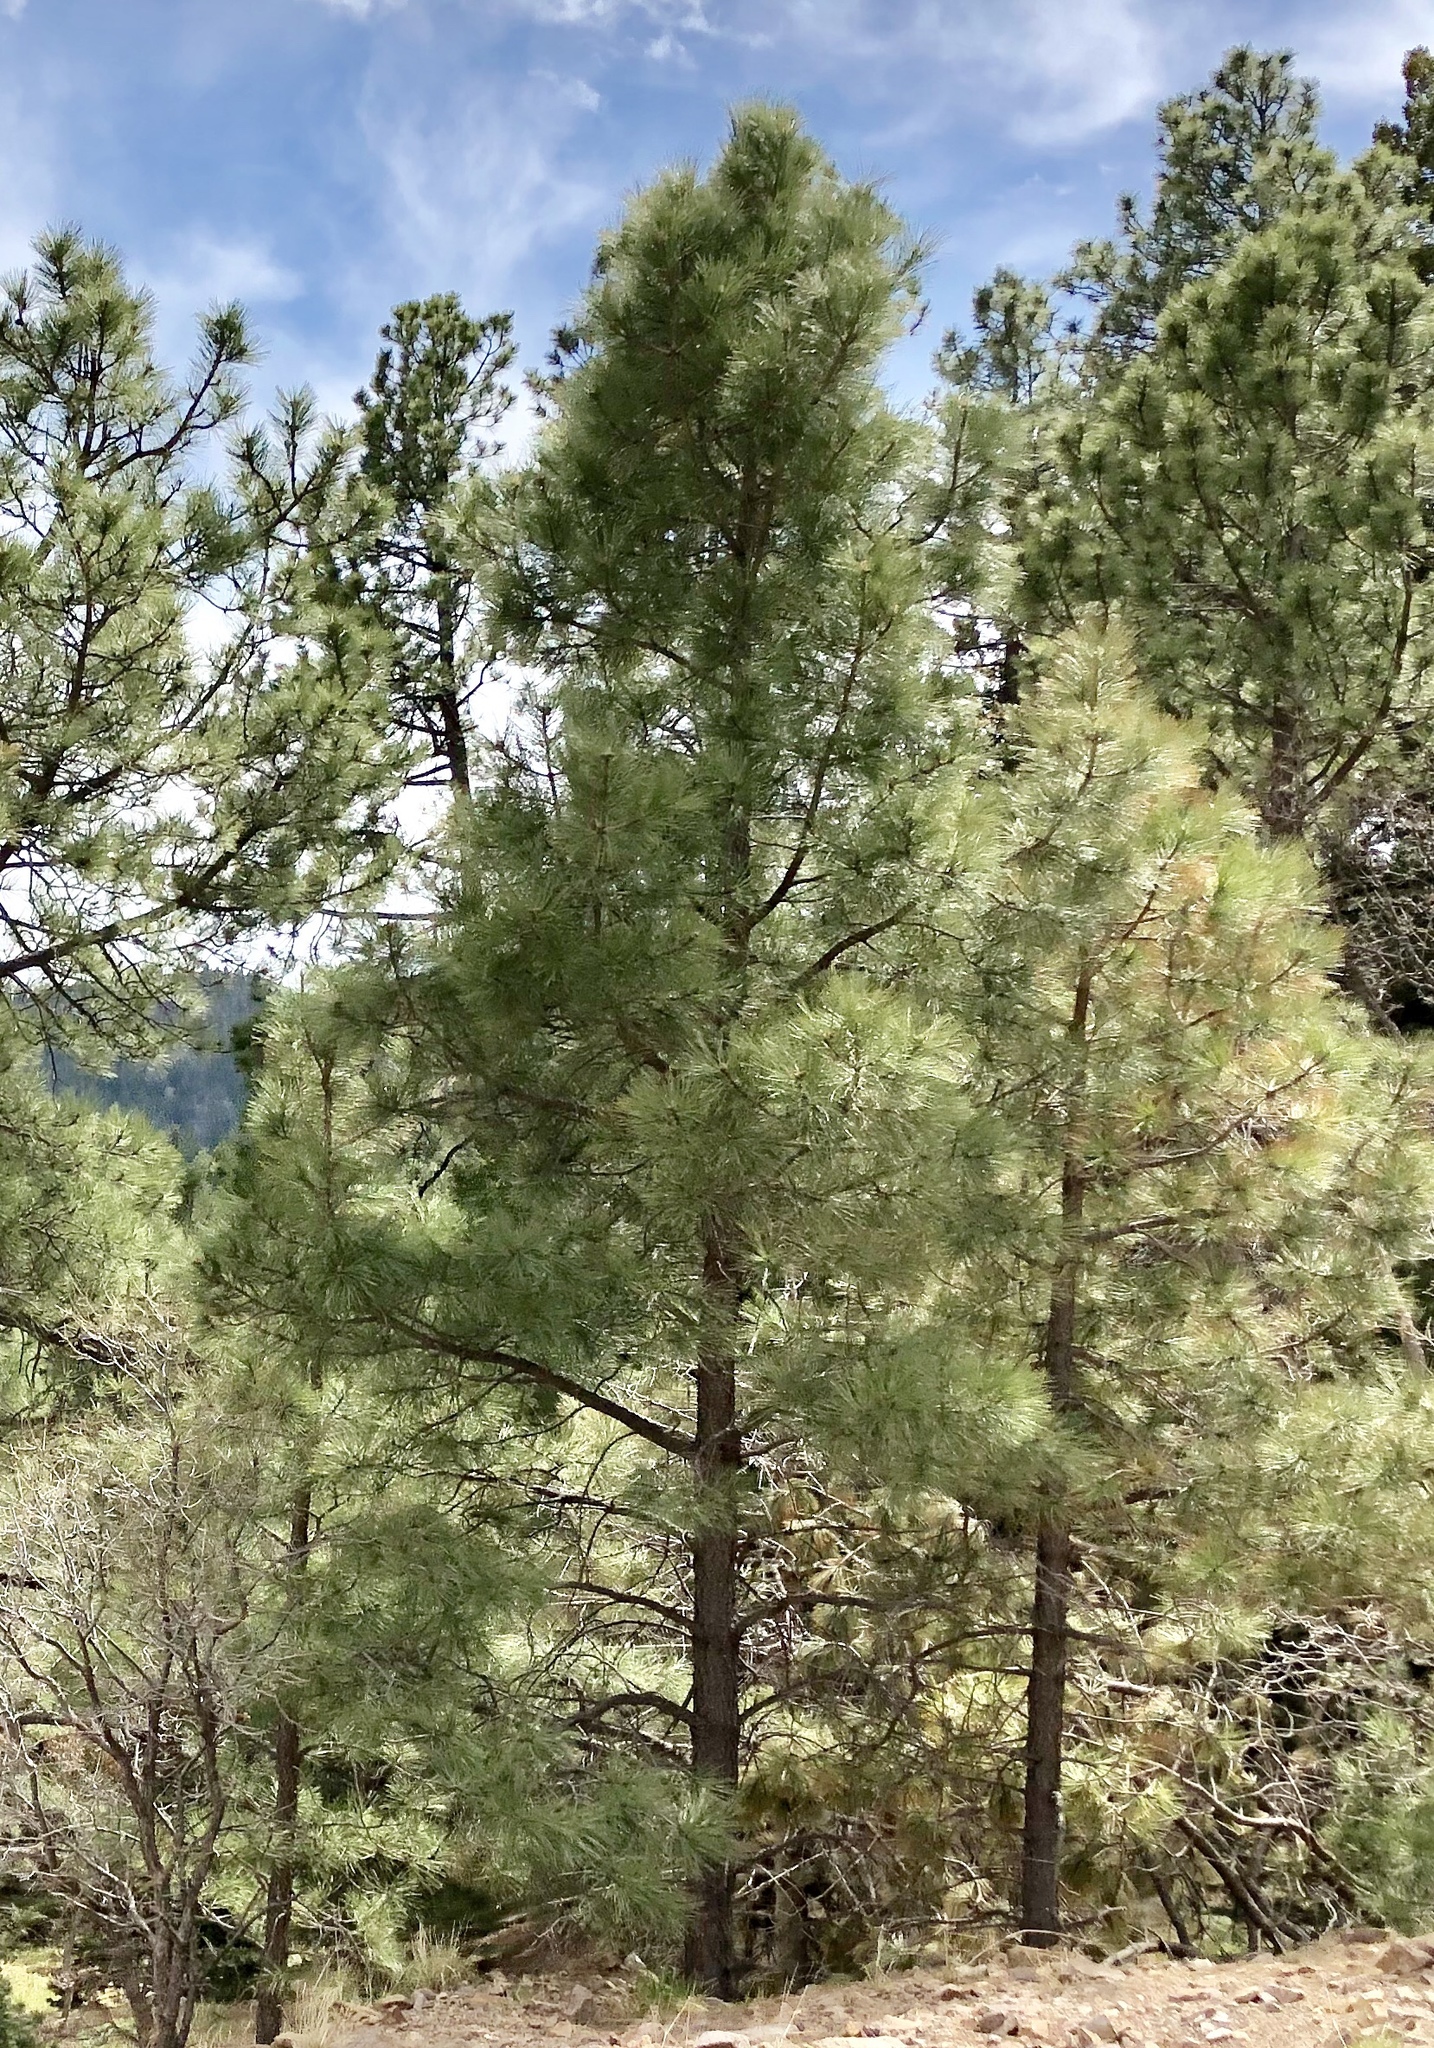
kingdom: Plantae
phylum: Tracheophyta
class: Pinopsida
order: Pinales
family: Pinaceae
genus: Pinus
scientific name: Pinus ponderosa
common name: Western yellow-pine
